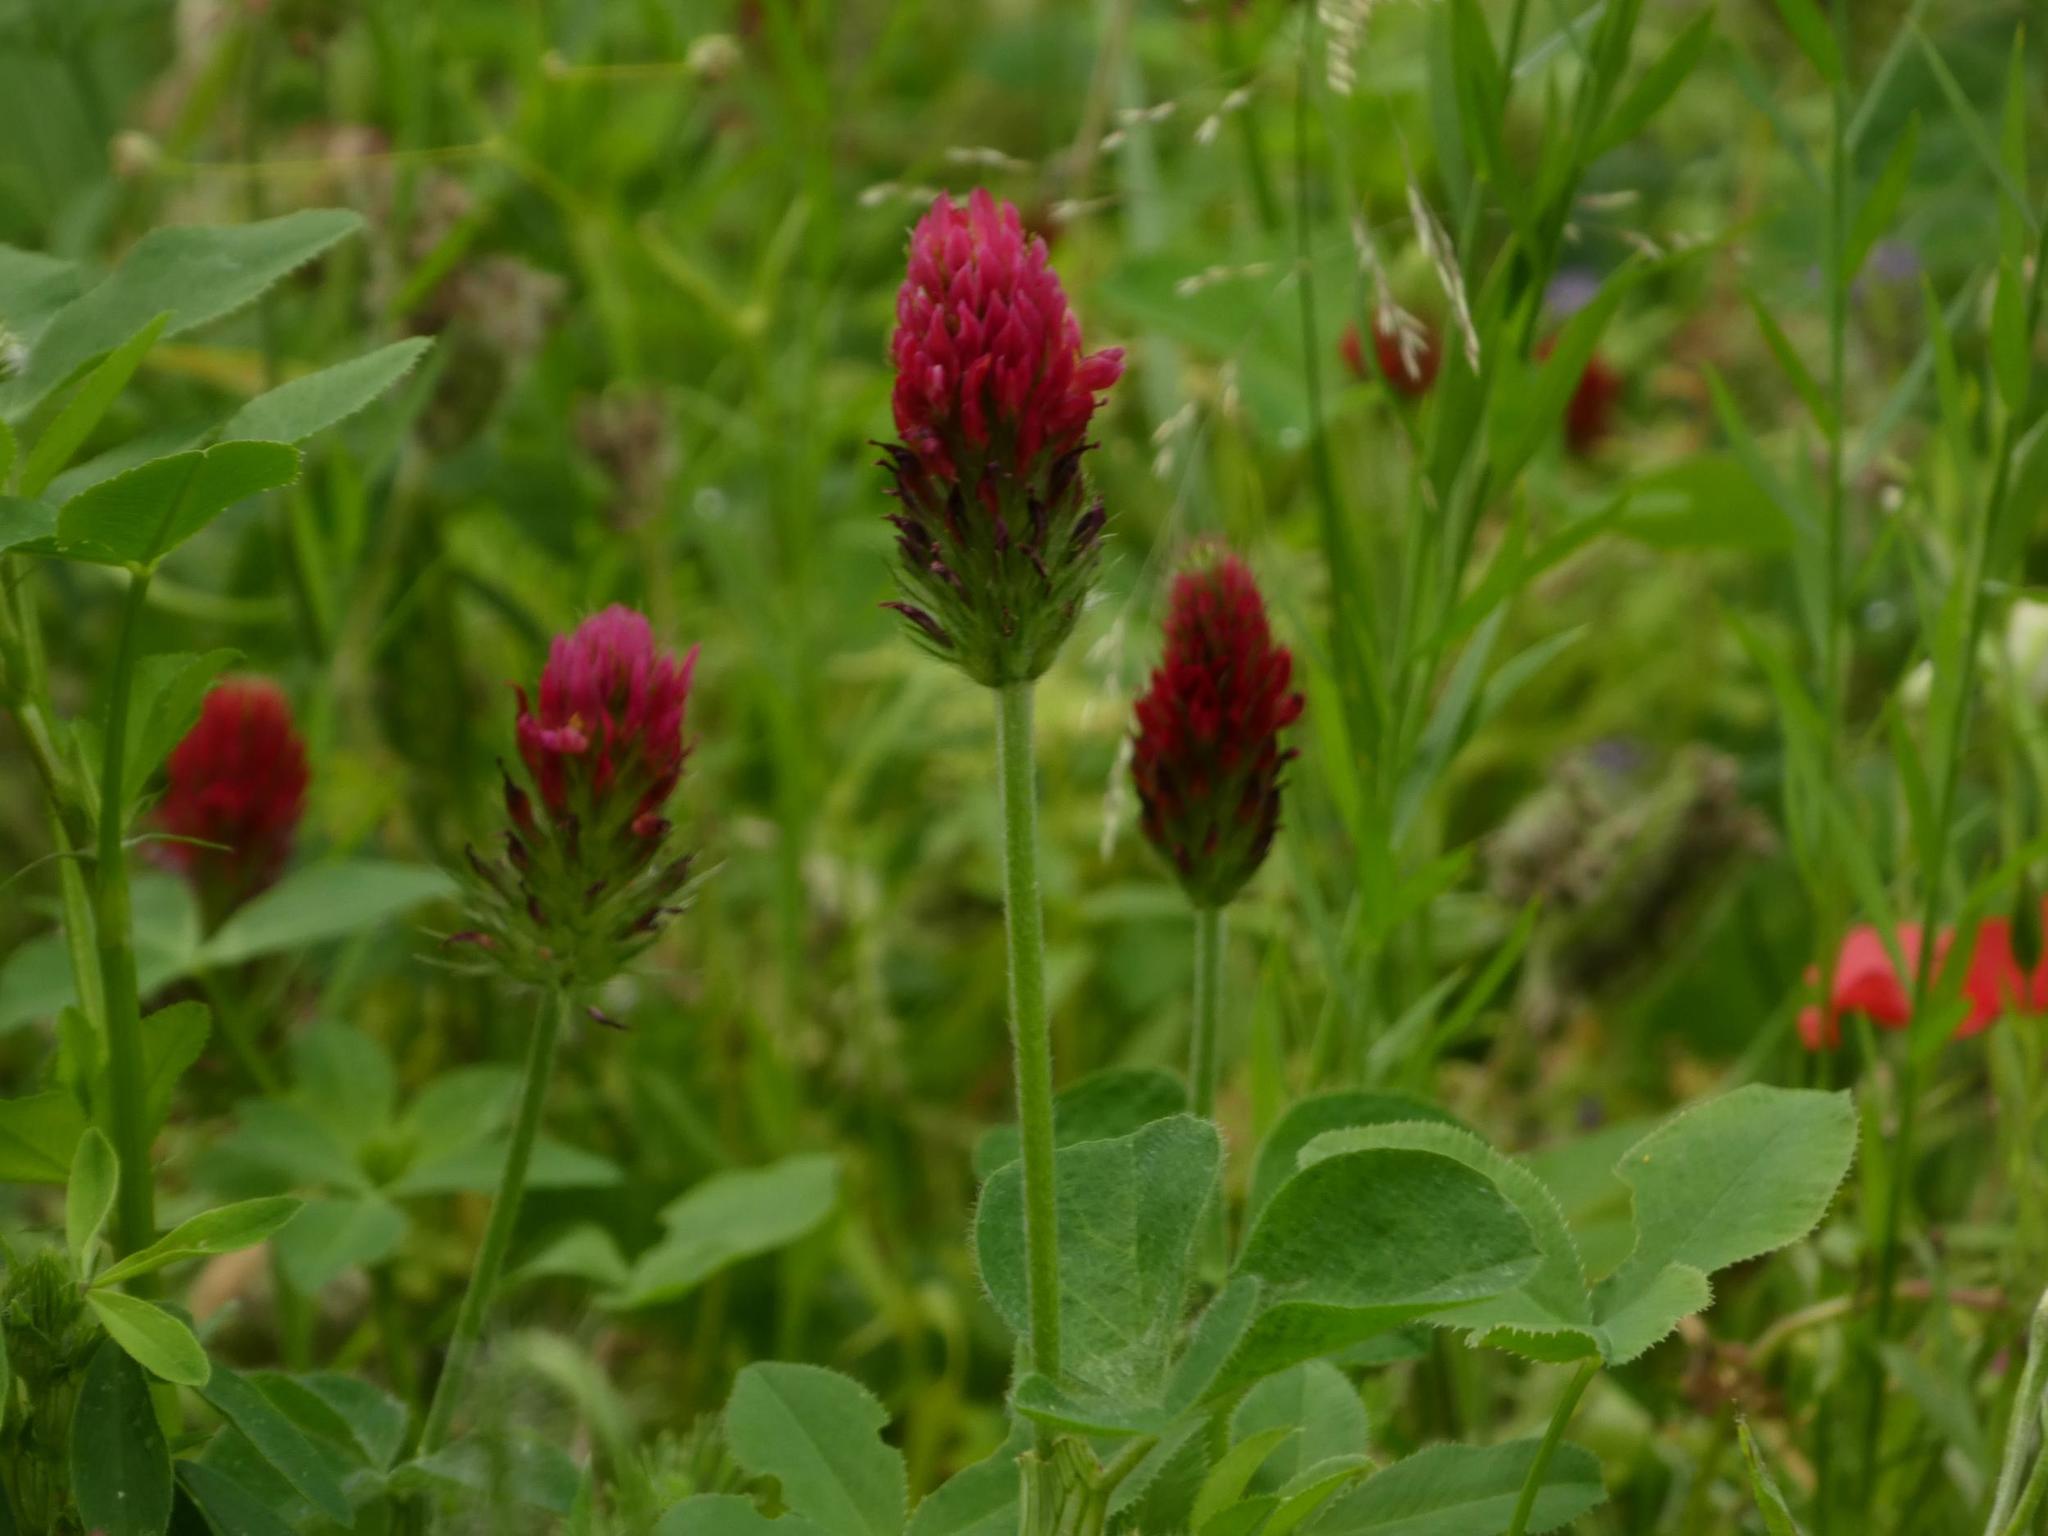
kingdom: Plantae
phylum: Tracheophyta
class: Magnoliopsida
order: Fabales
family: Fabaceae
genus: Trifolium
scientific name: Trifolium incarnatum
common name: Crimson clover
